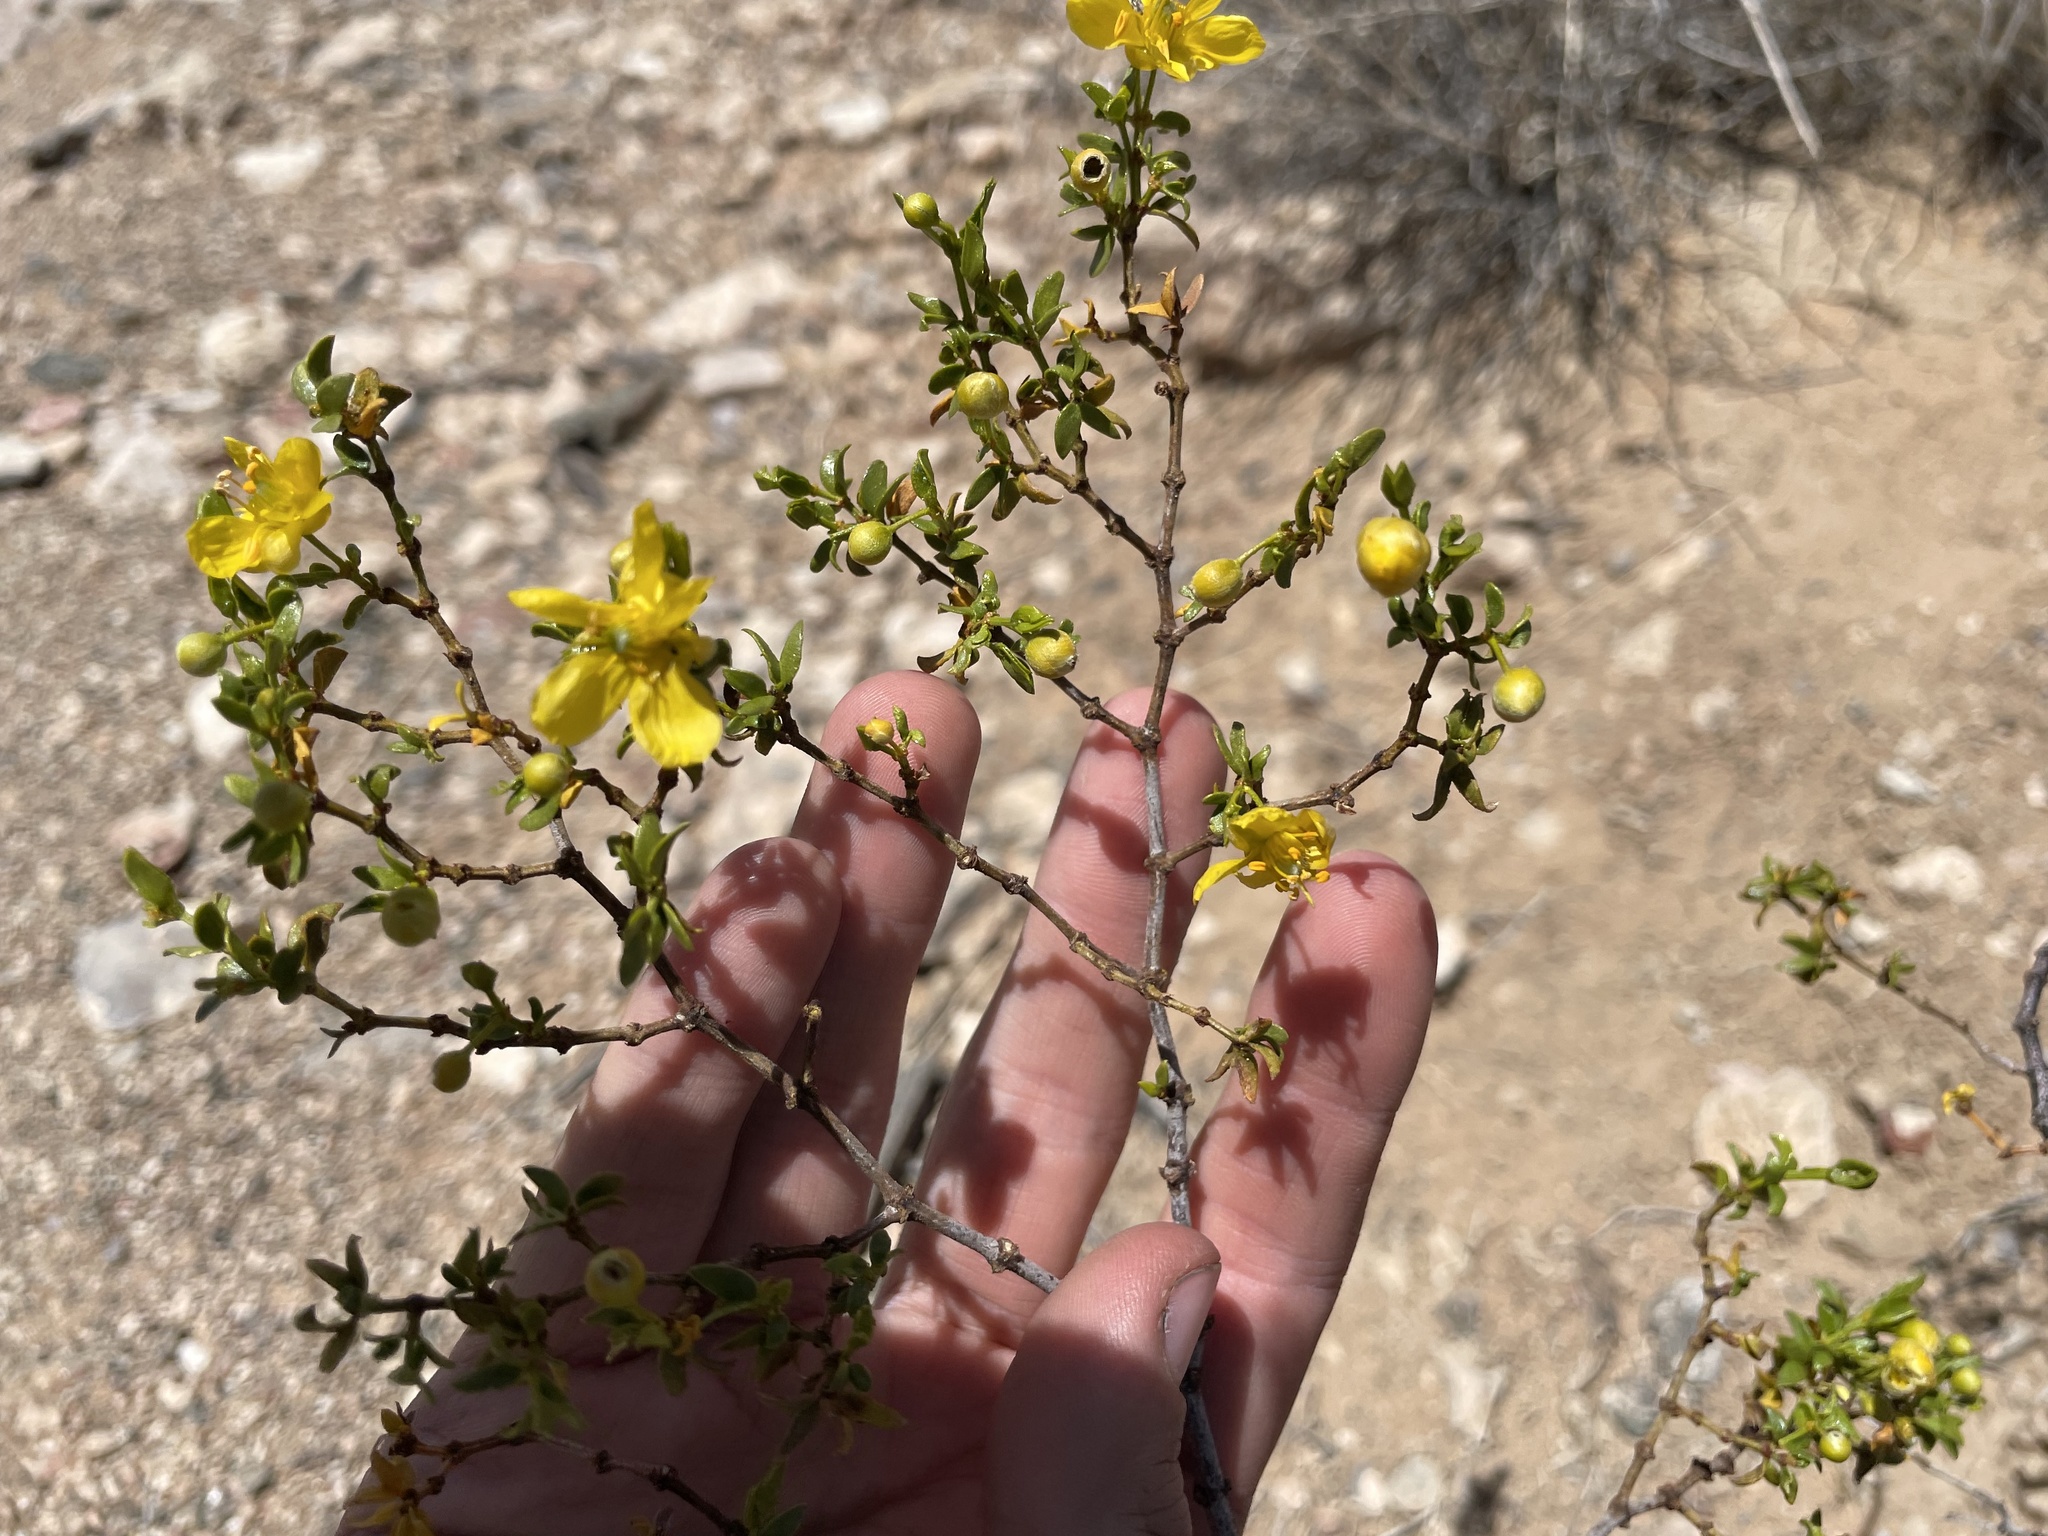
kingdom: Plantae
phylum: Tracheophyta
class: Magnoliopsida
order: Zygophyllales
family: Zygophyllaceae
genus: Larrea
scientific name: Larrea tridentata
